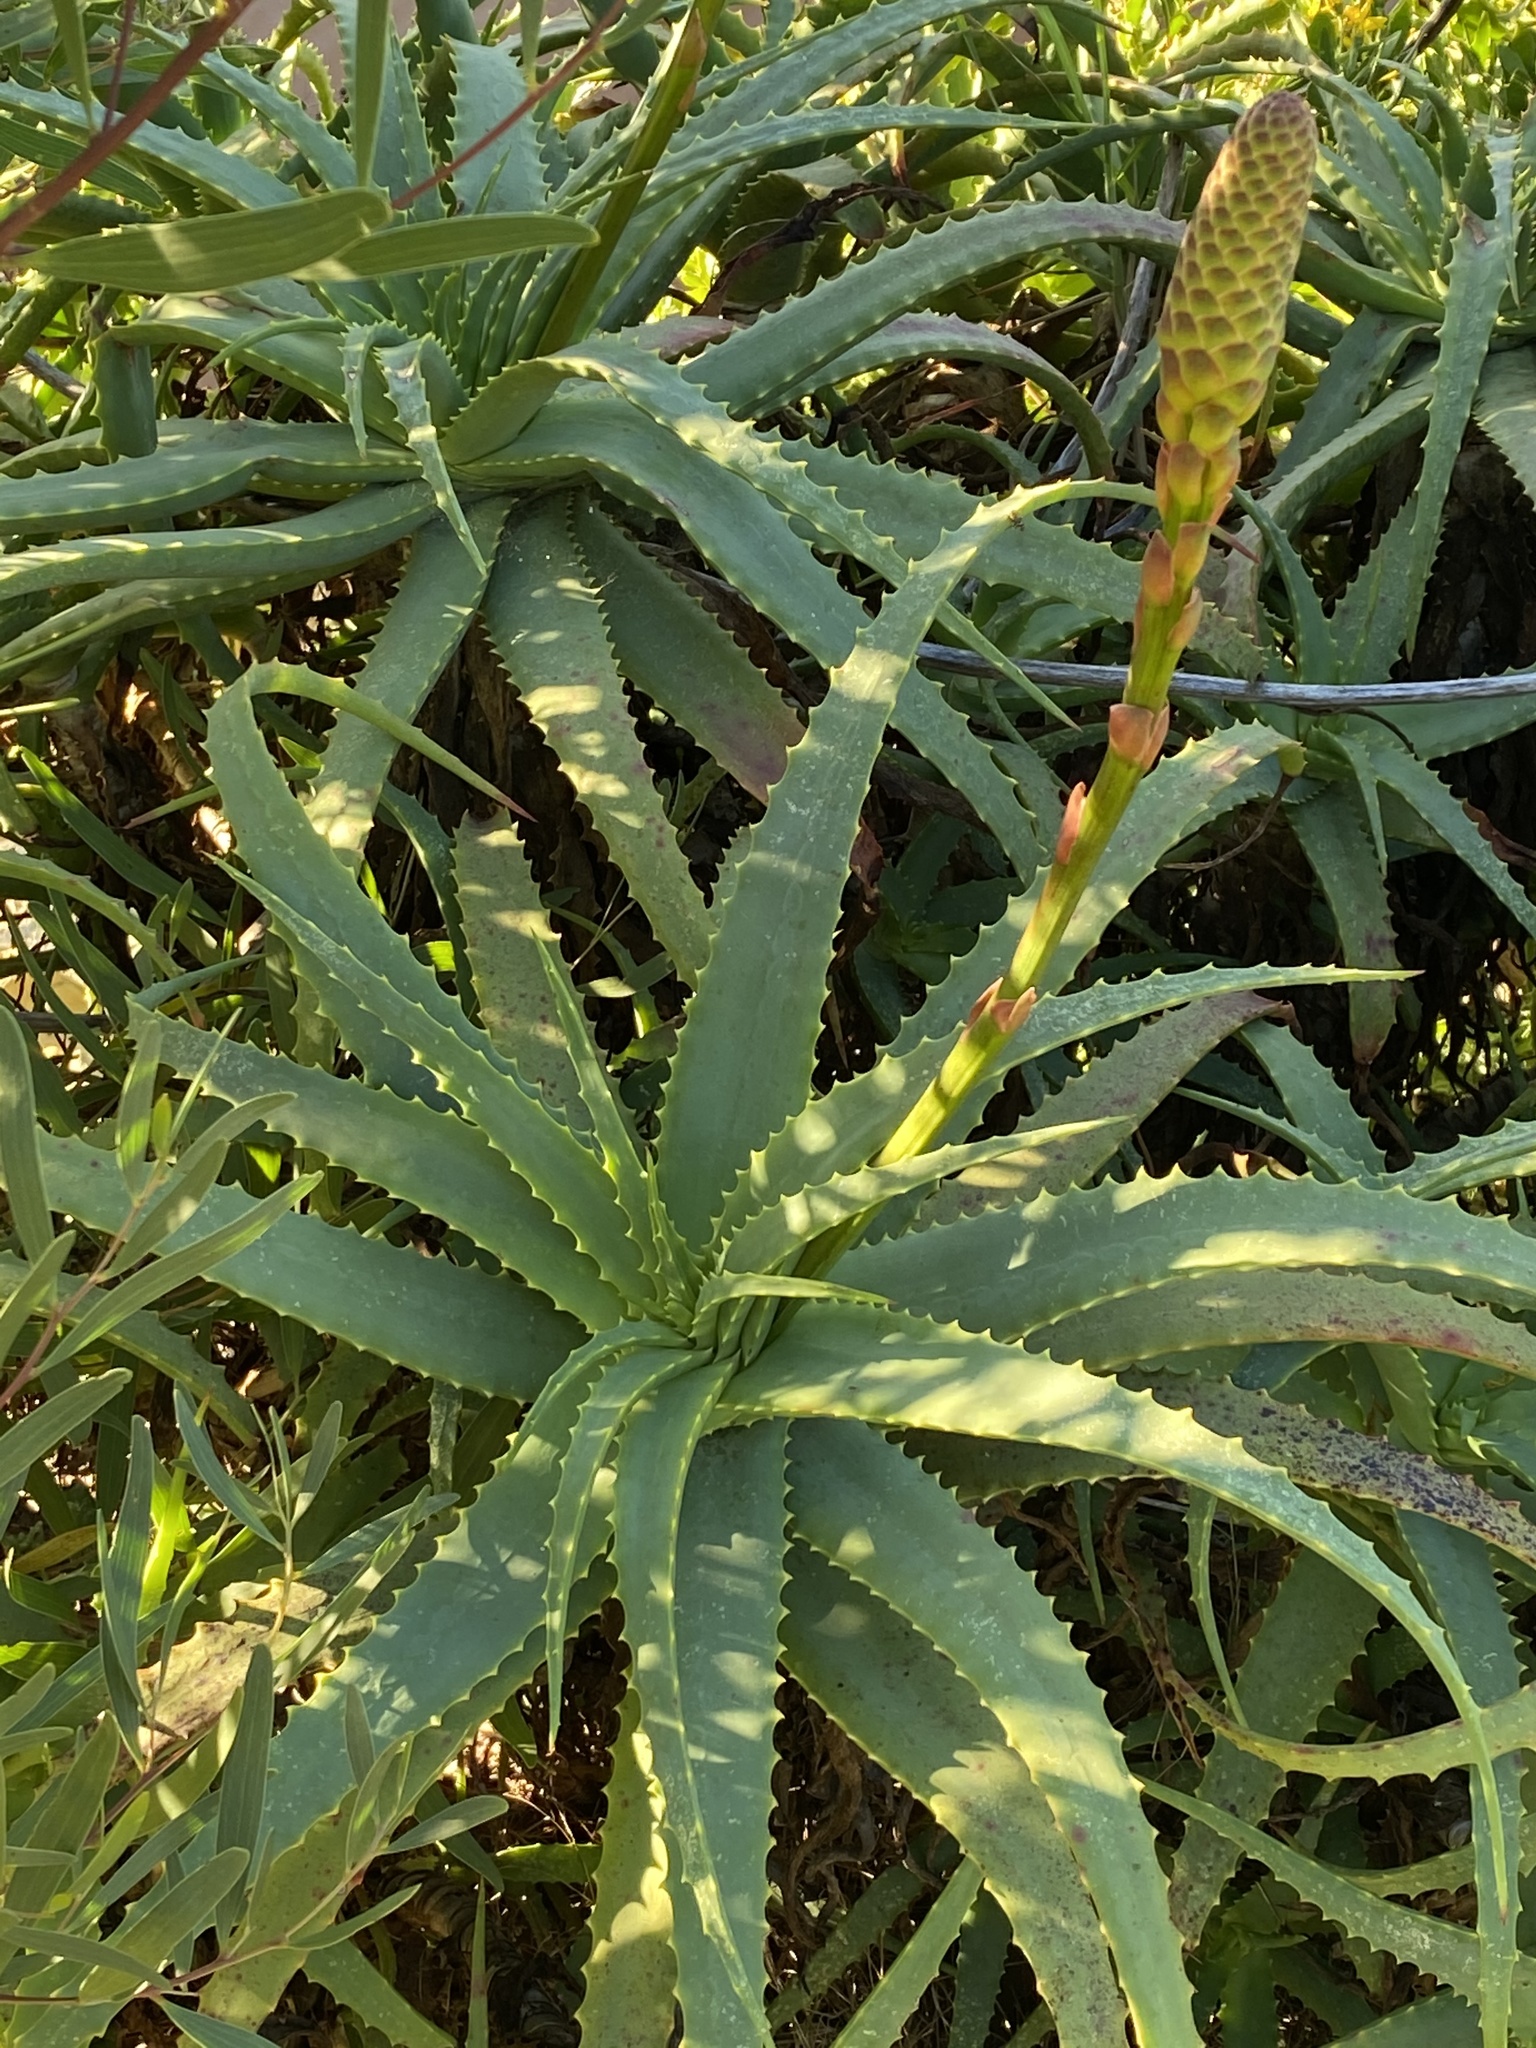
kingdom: Plantae
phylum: Tracheophyta
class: Liliopsida
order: Asparagales
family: Asphodelaceae
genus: Aloe
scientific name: Aloe arborescens
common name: Candelabra aloe
